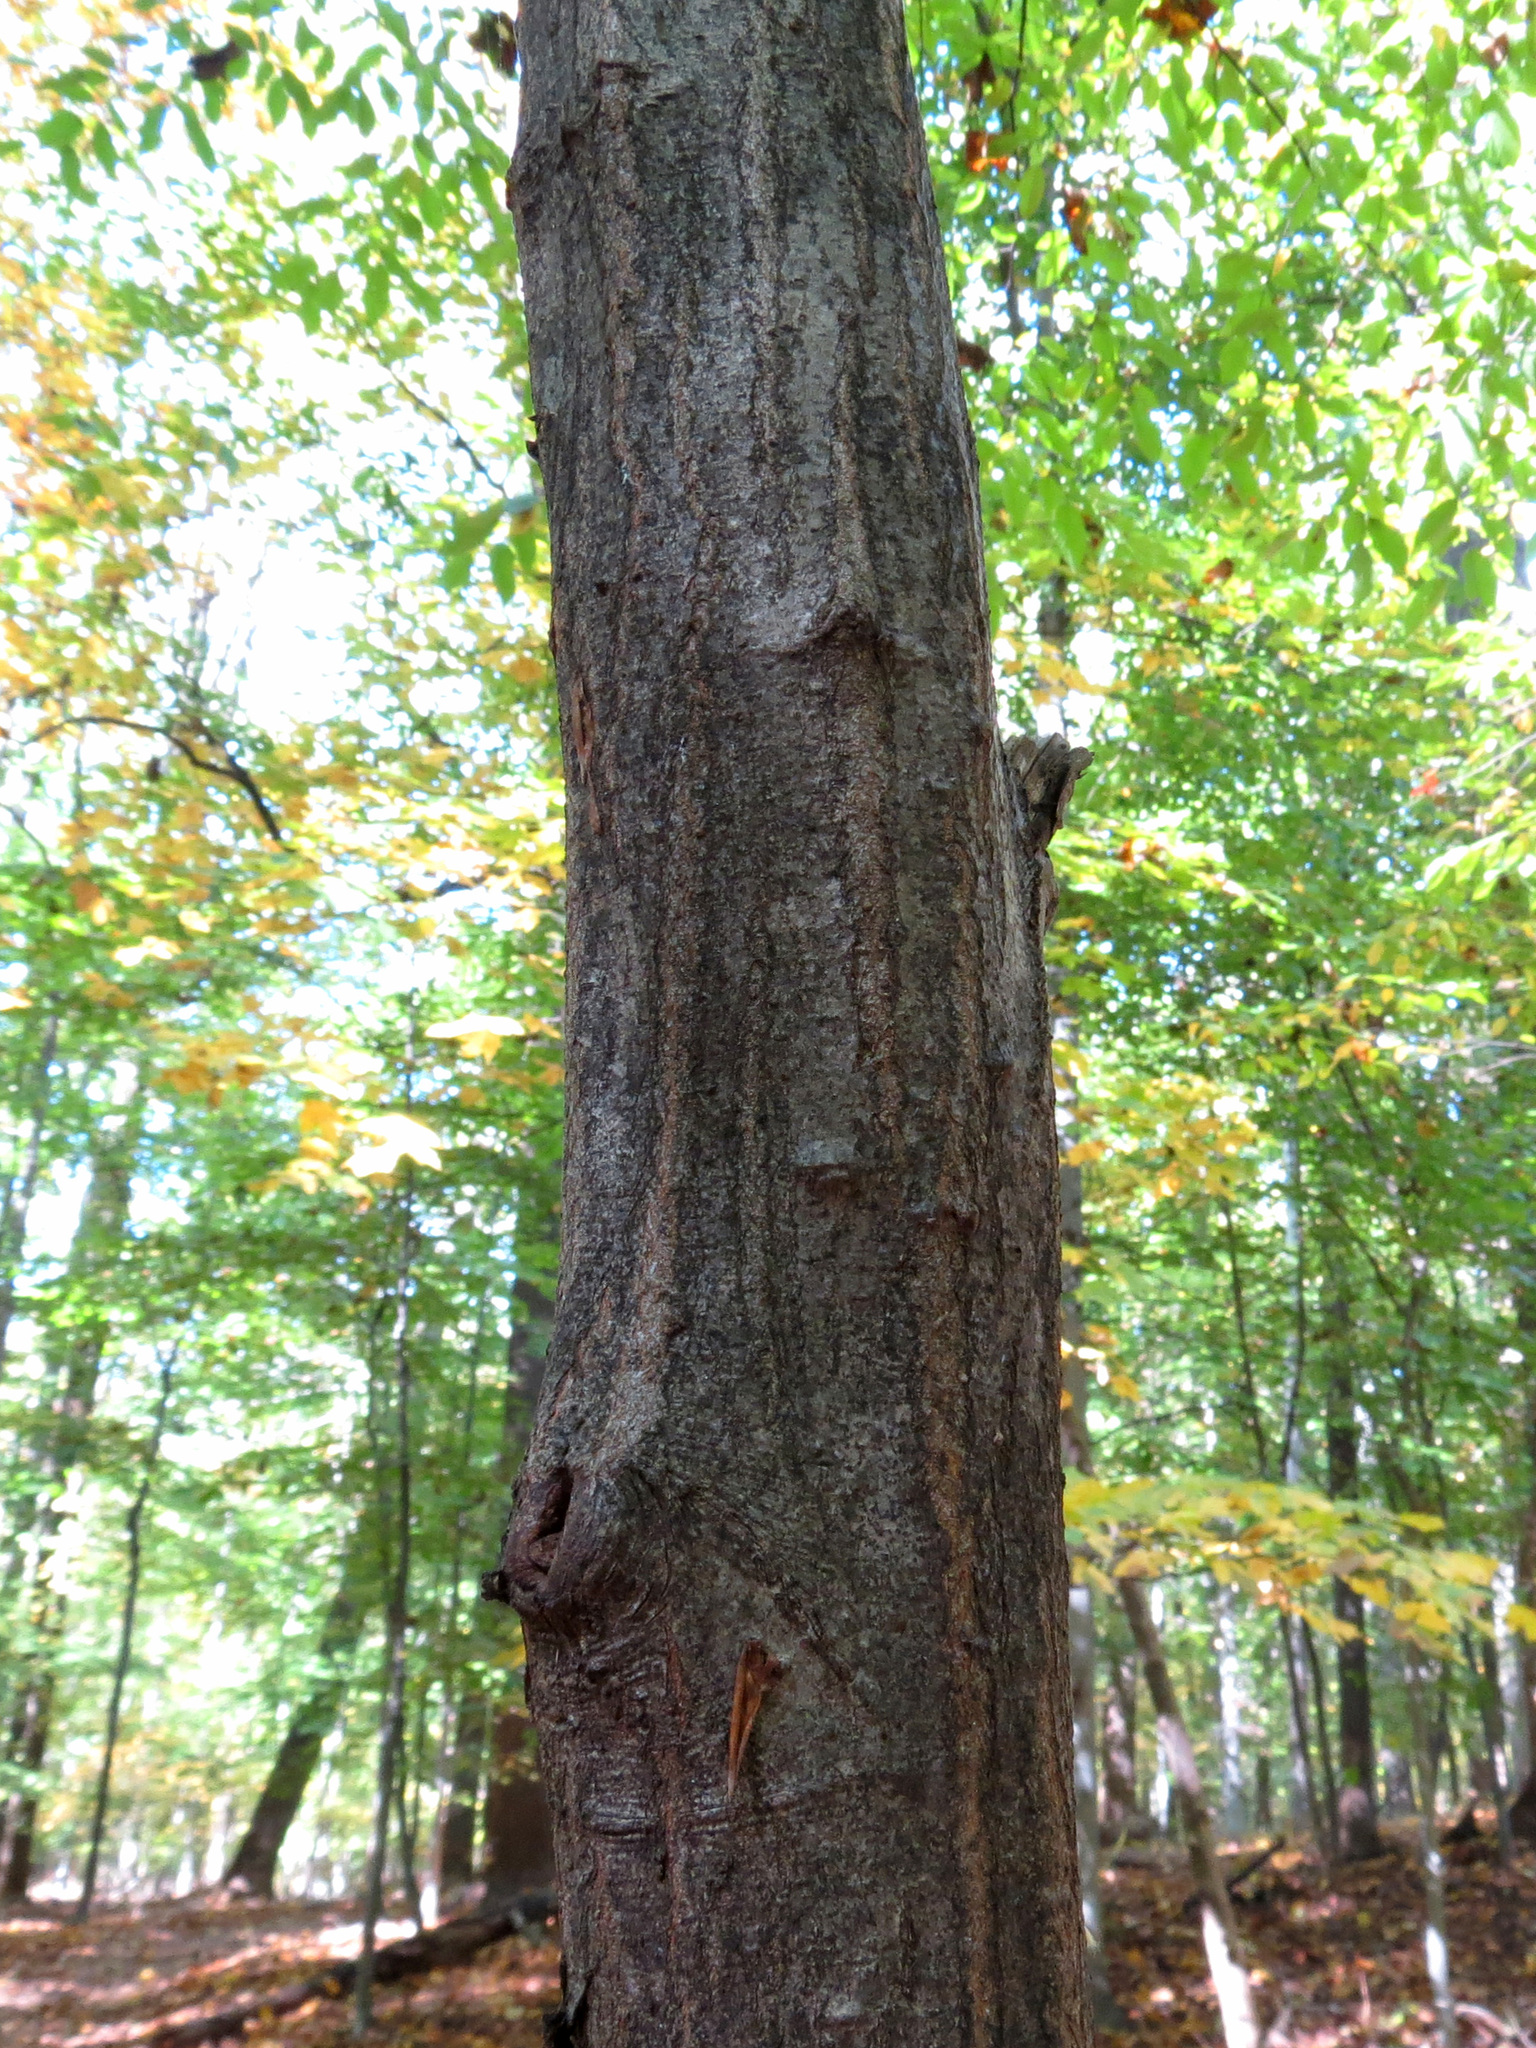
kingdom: Plantae
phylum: Tracheophyta
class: Magnoliopsida
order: Fagales
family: Betulaceae
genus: Carpinus
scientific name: Carpinus caroliniana
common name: American hornbeam
